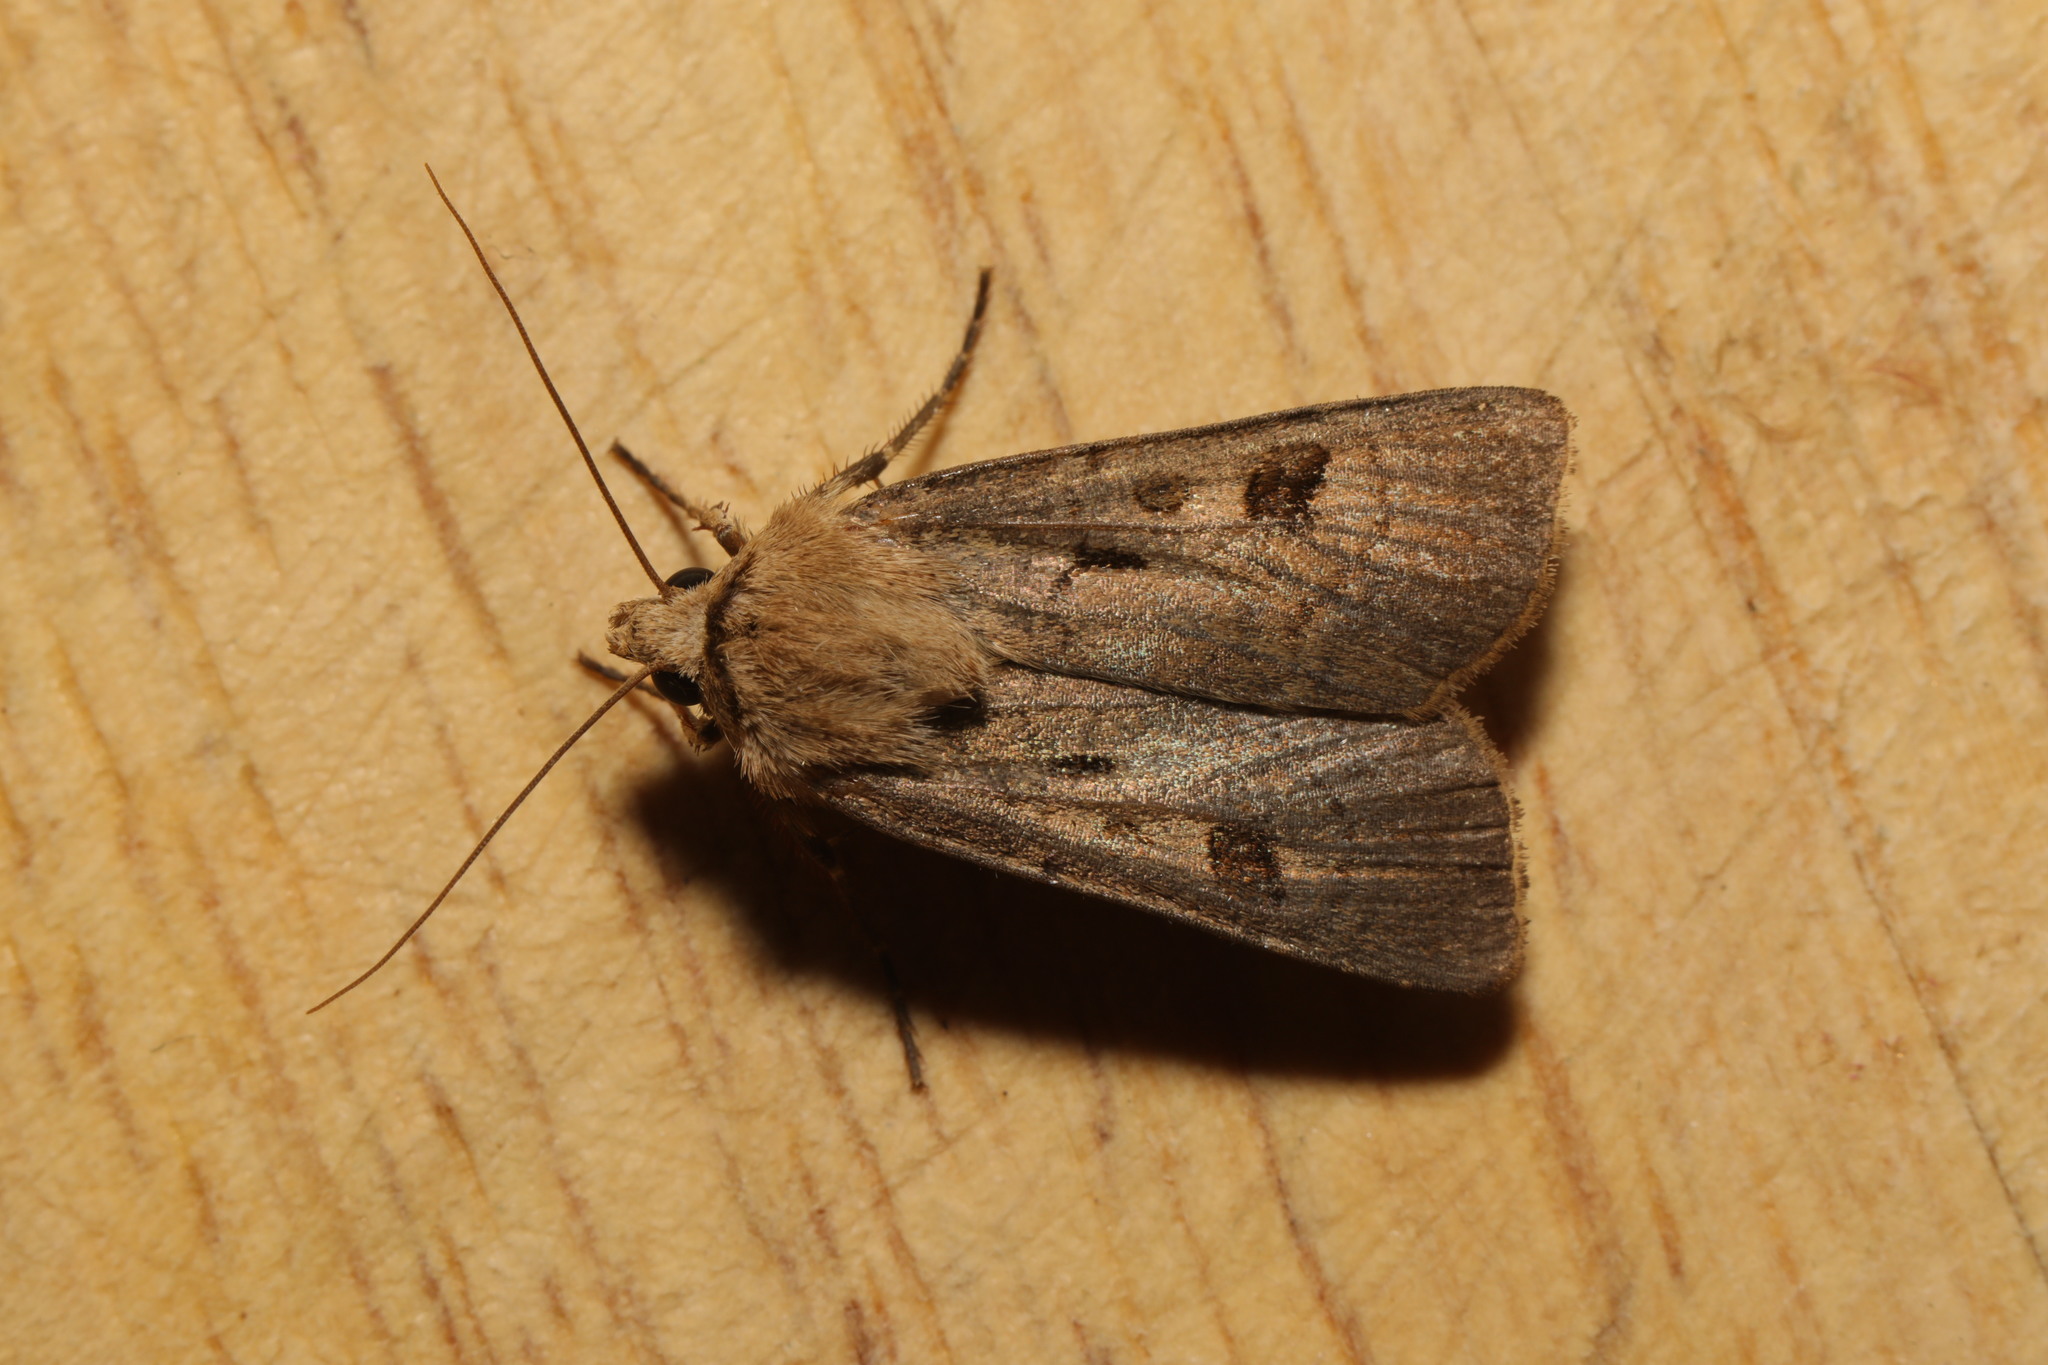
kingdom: Animalia
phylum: Arthropoda
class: Insecta
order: Lepidoptera
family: Noctuidae
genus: Agrotis
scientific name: Agrotis exclamationis
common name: Heart and dart
